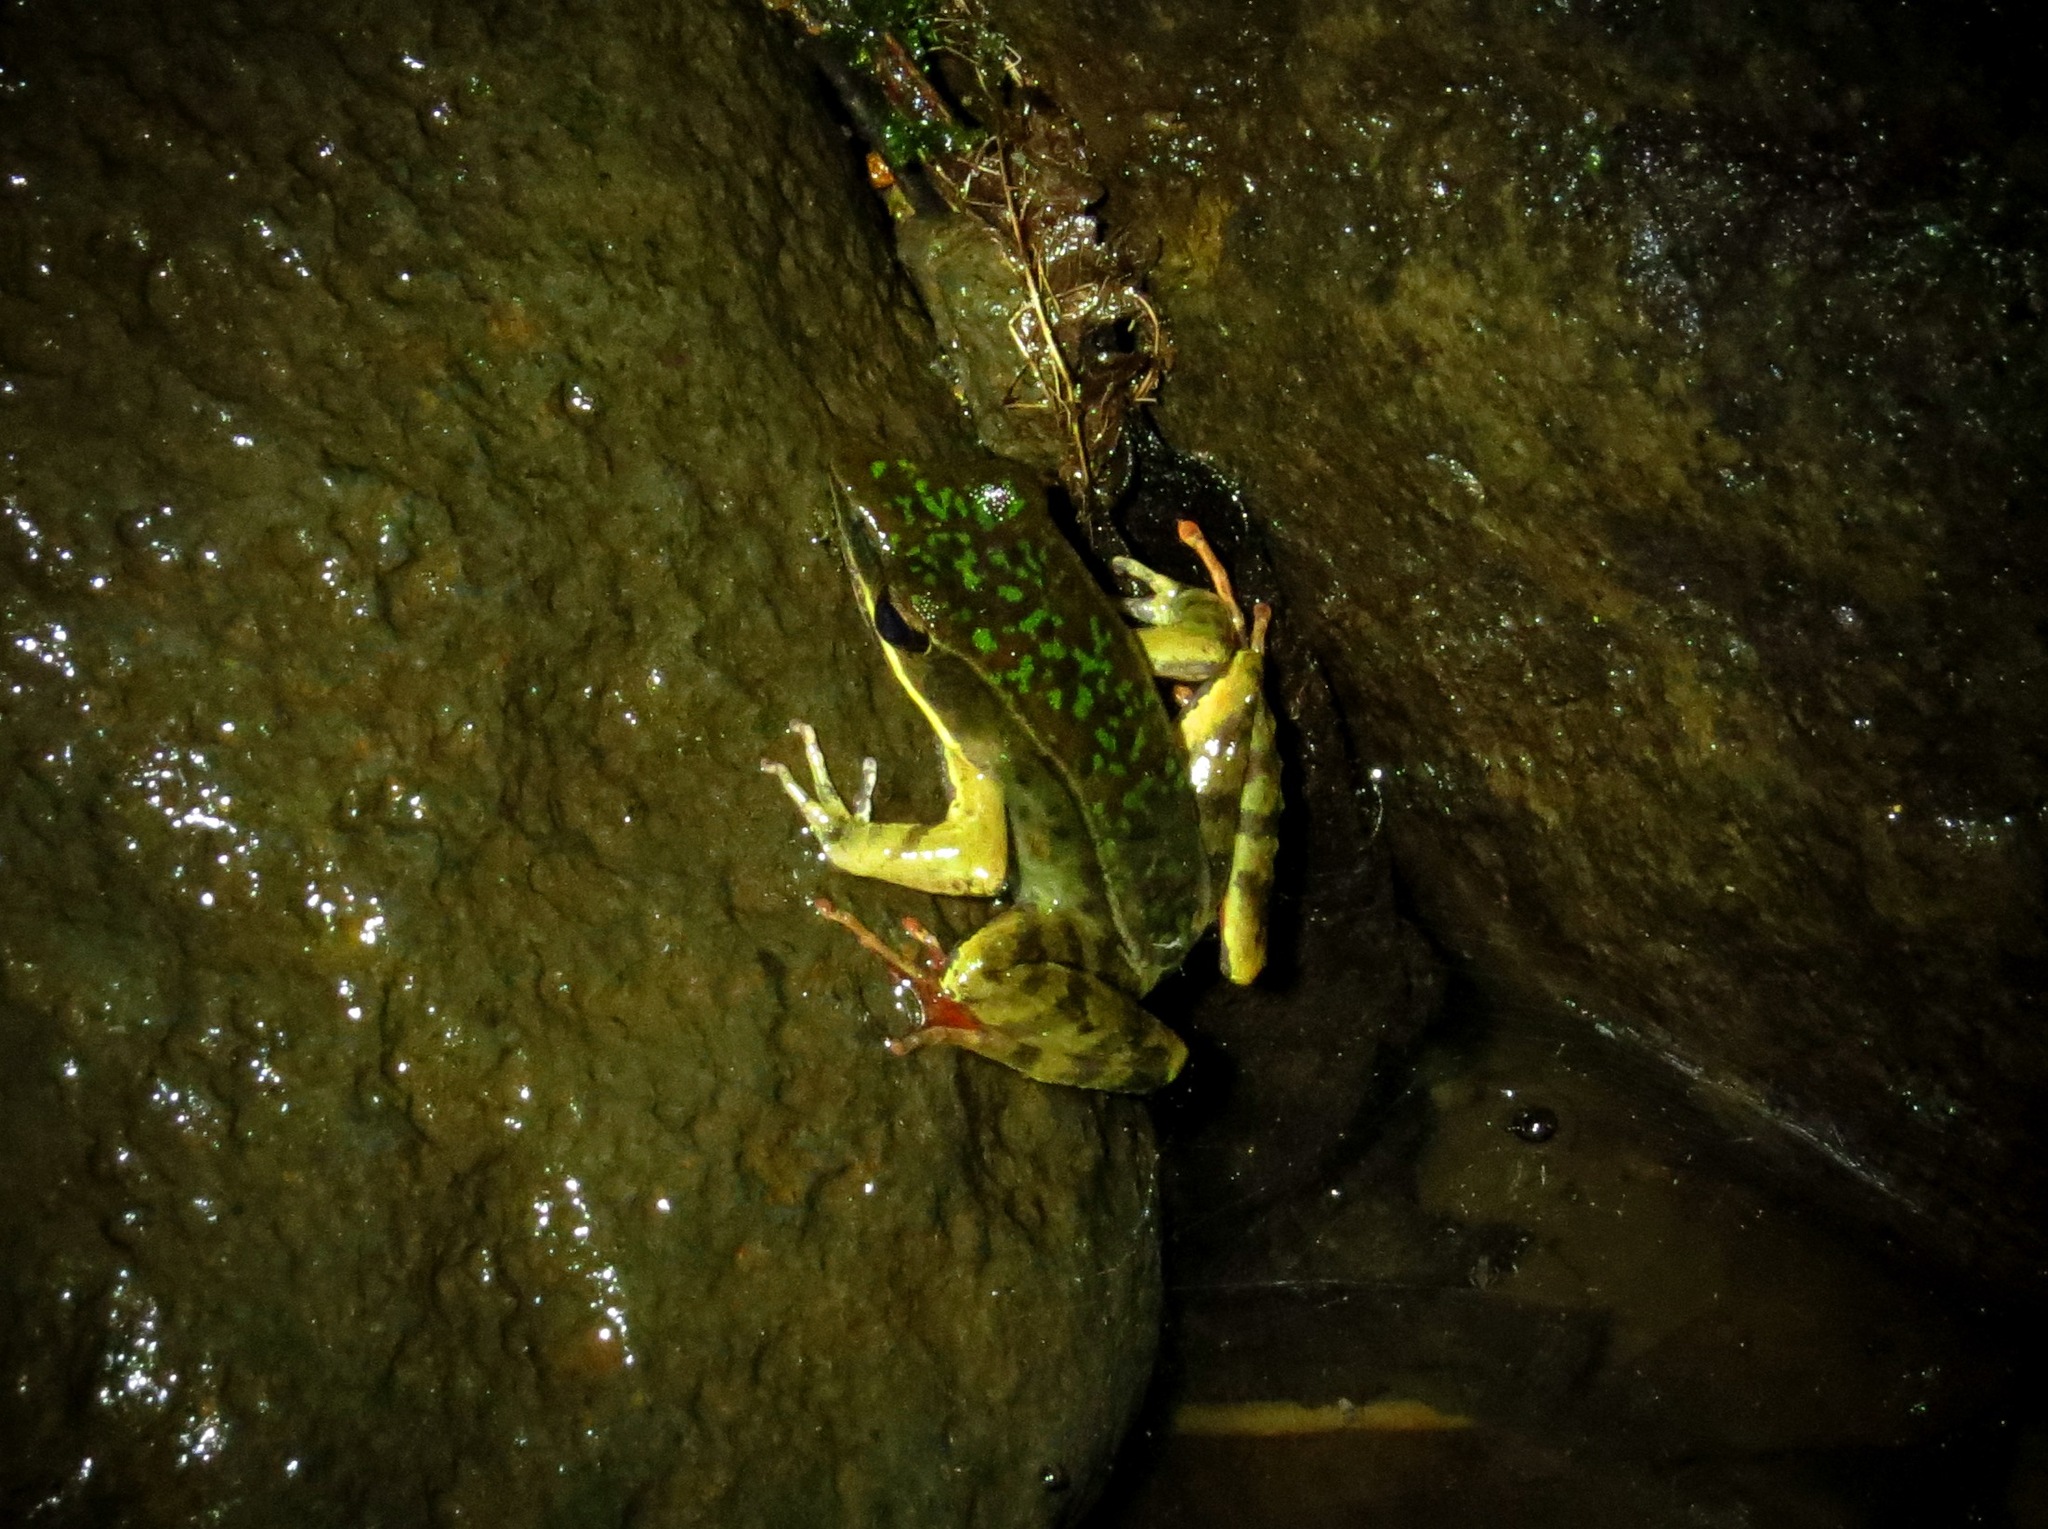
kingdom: Animalia
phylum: Chordata
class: Amphibia
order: Anura
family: Ranidae
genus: Lithobates
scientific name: Lithobates warszewitschii
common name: Warszewitsch's frog
